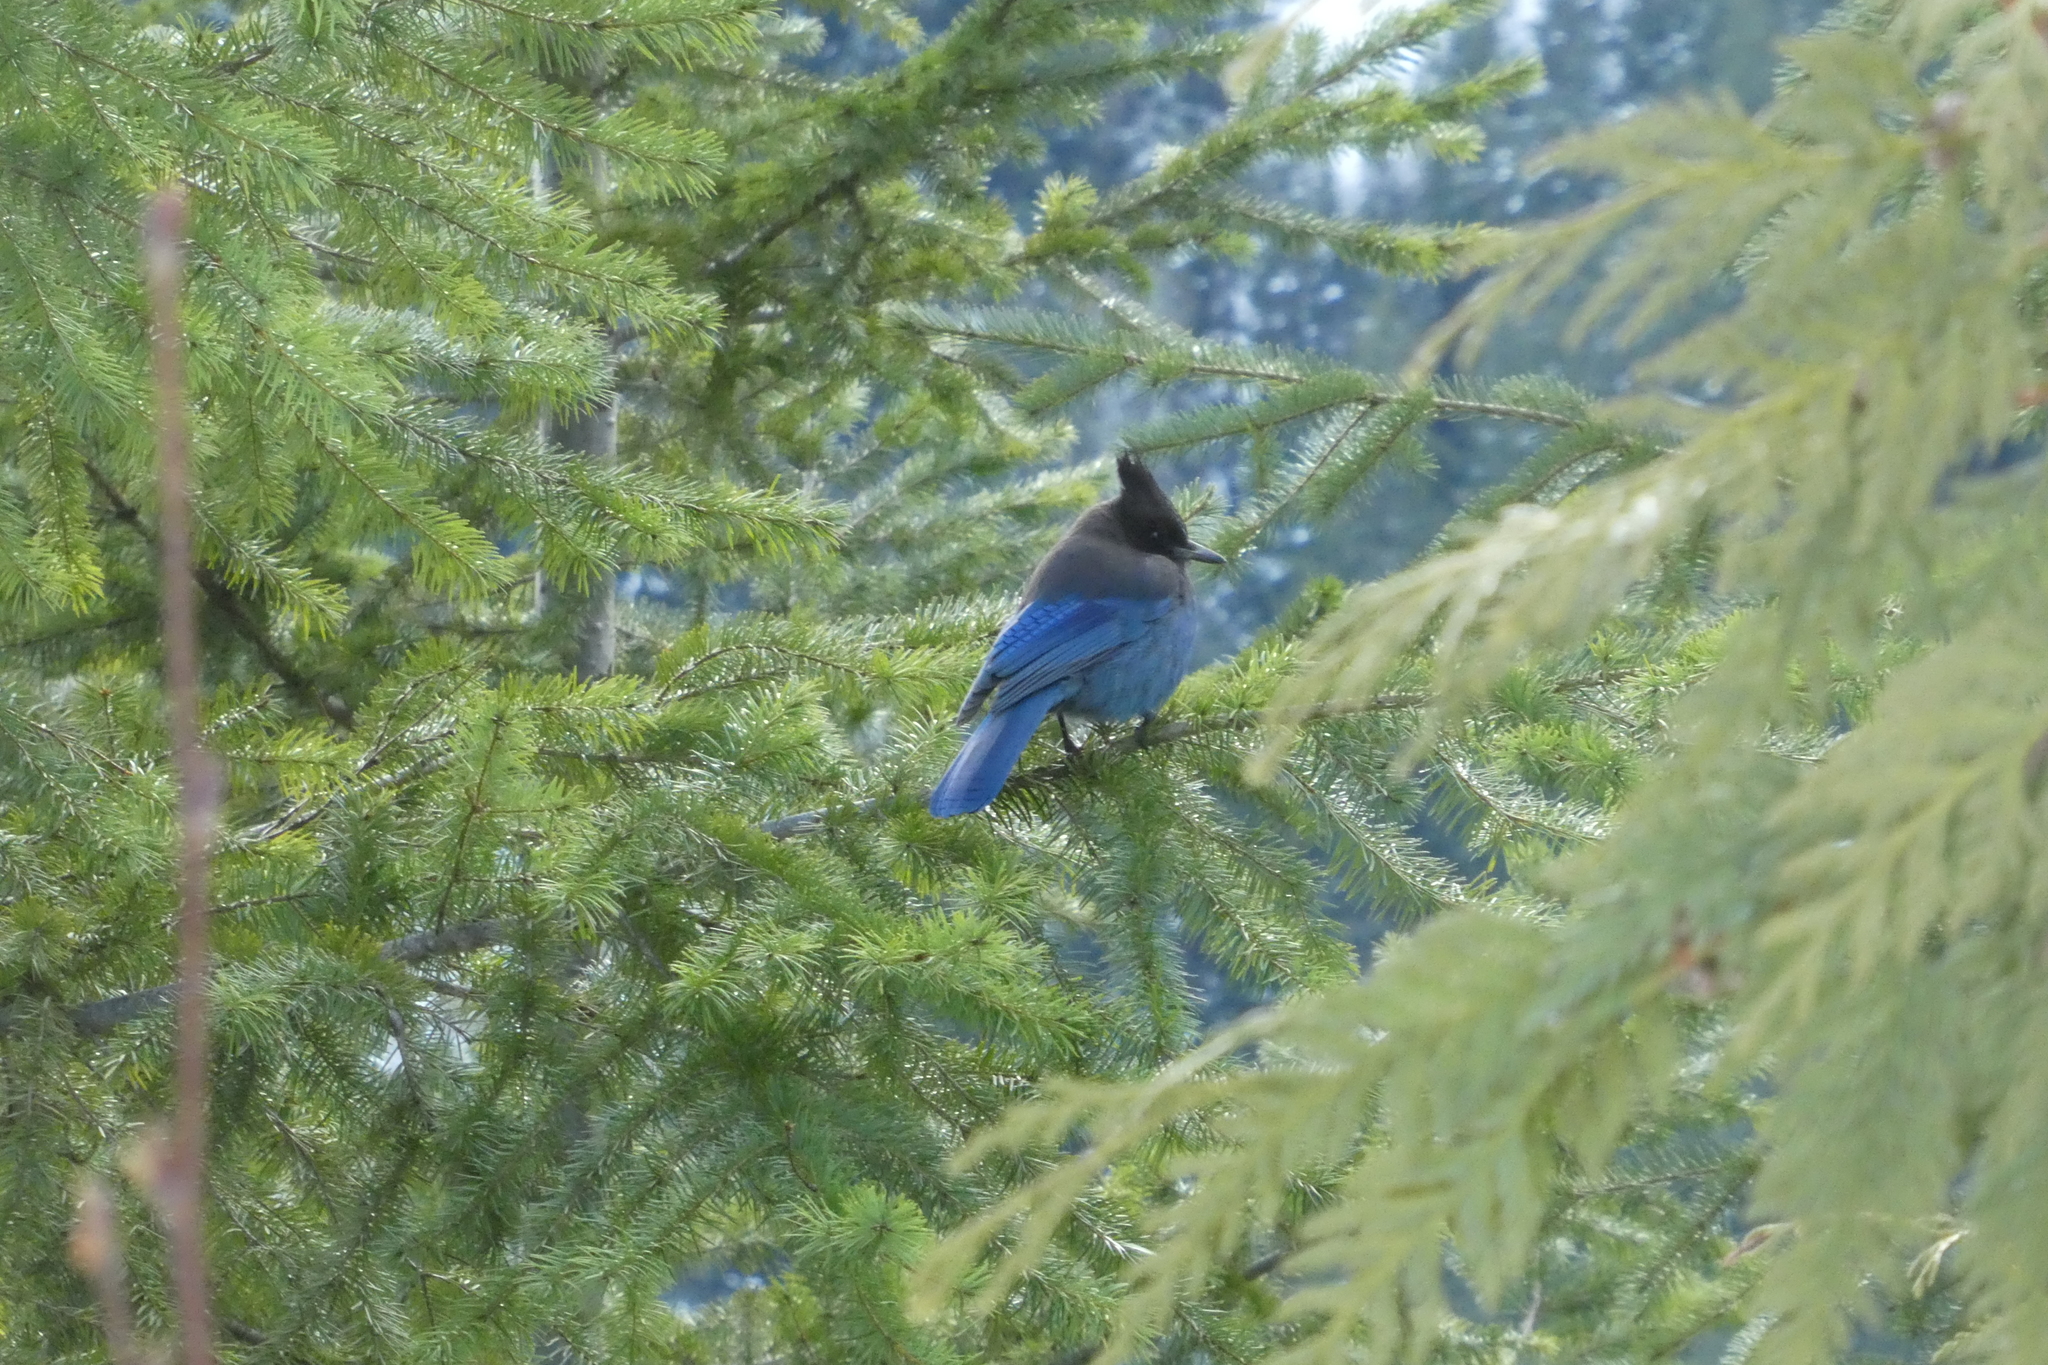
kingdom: Animalia
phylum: Chordata
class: Aves
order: Passeriformes
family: Corvidae
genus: Cyanocitta
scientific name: Cyanocitta stelleri
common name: Steller's jay
